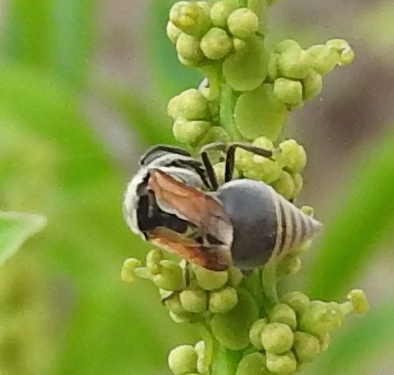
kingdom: Animalia
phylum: Arthropoda
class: Insecta
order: Hymenoptera
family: Vespidae
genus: Brachygastra
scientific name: Brachygastra mellifica
